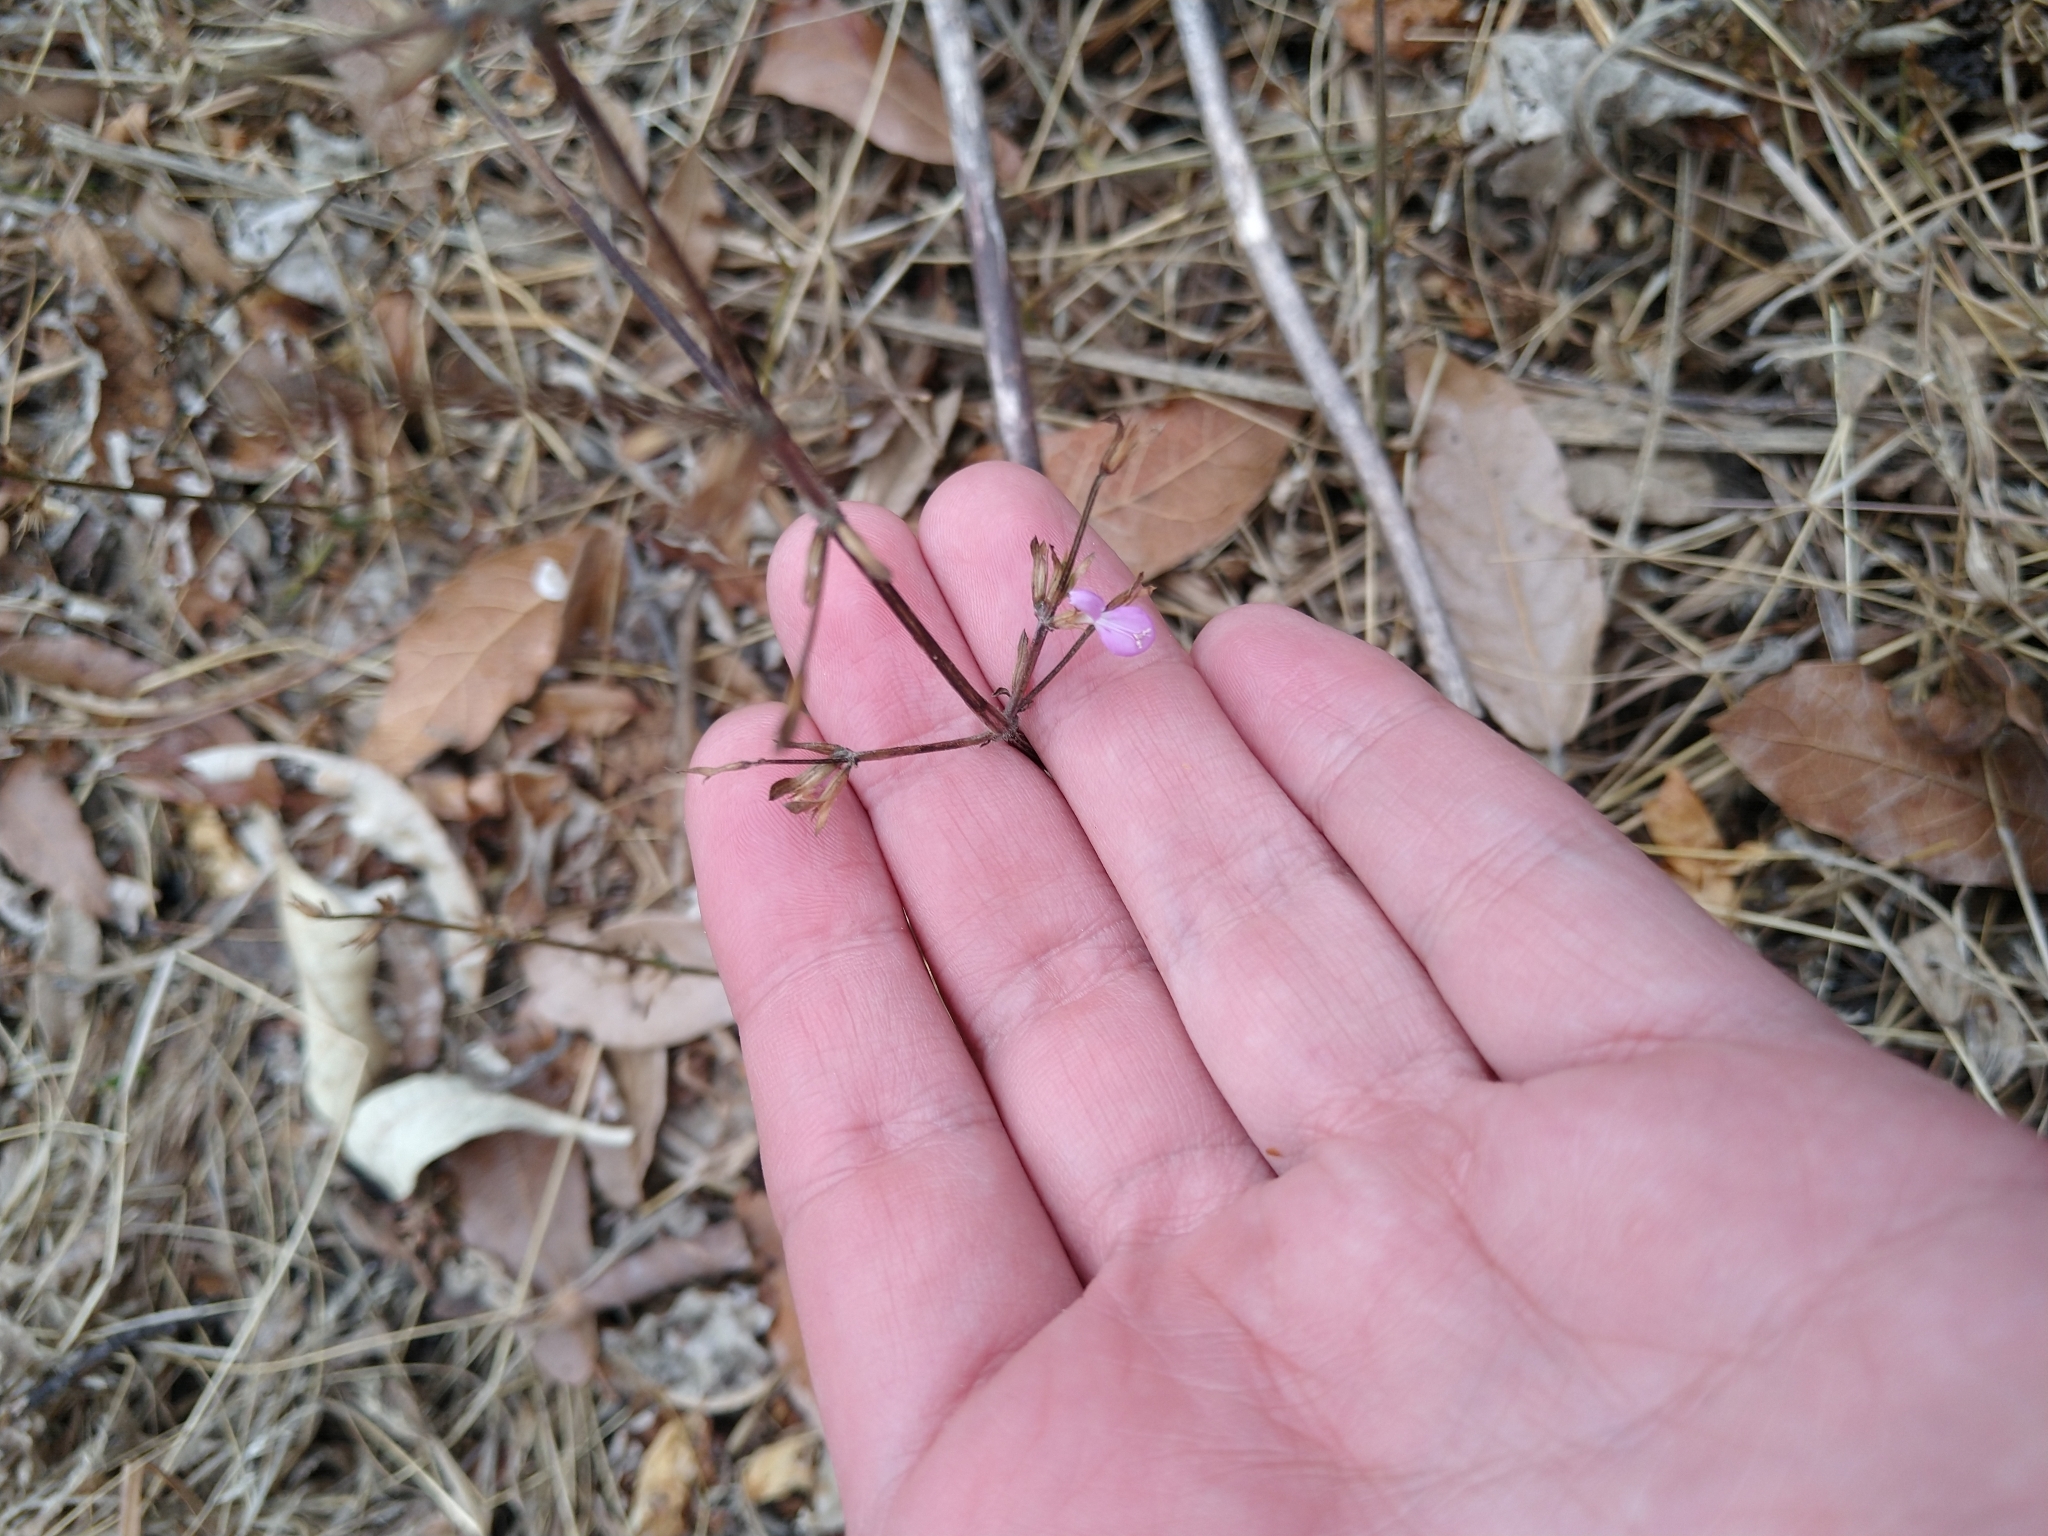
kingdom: Plantae
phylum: Tracheophyta
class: Magnoliopsida
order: Lamiales
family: Acanthaceae
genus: Dicliptera
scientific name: Dicliptera peduncularis
